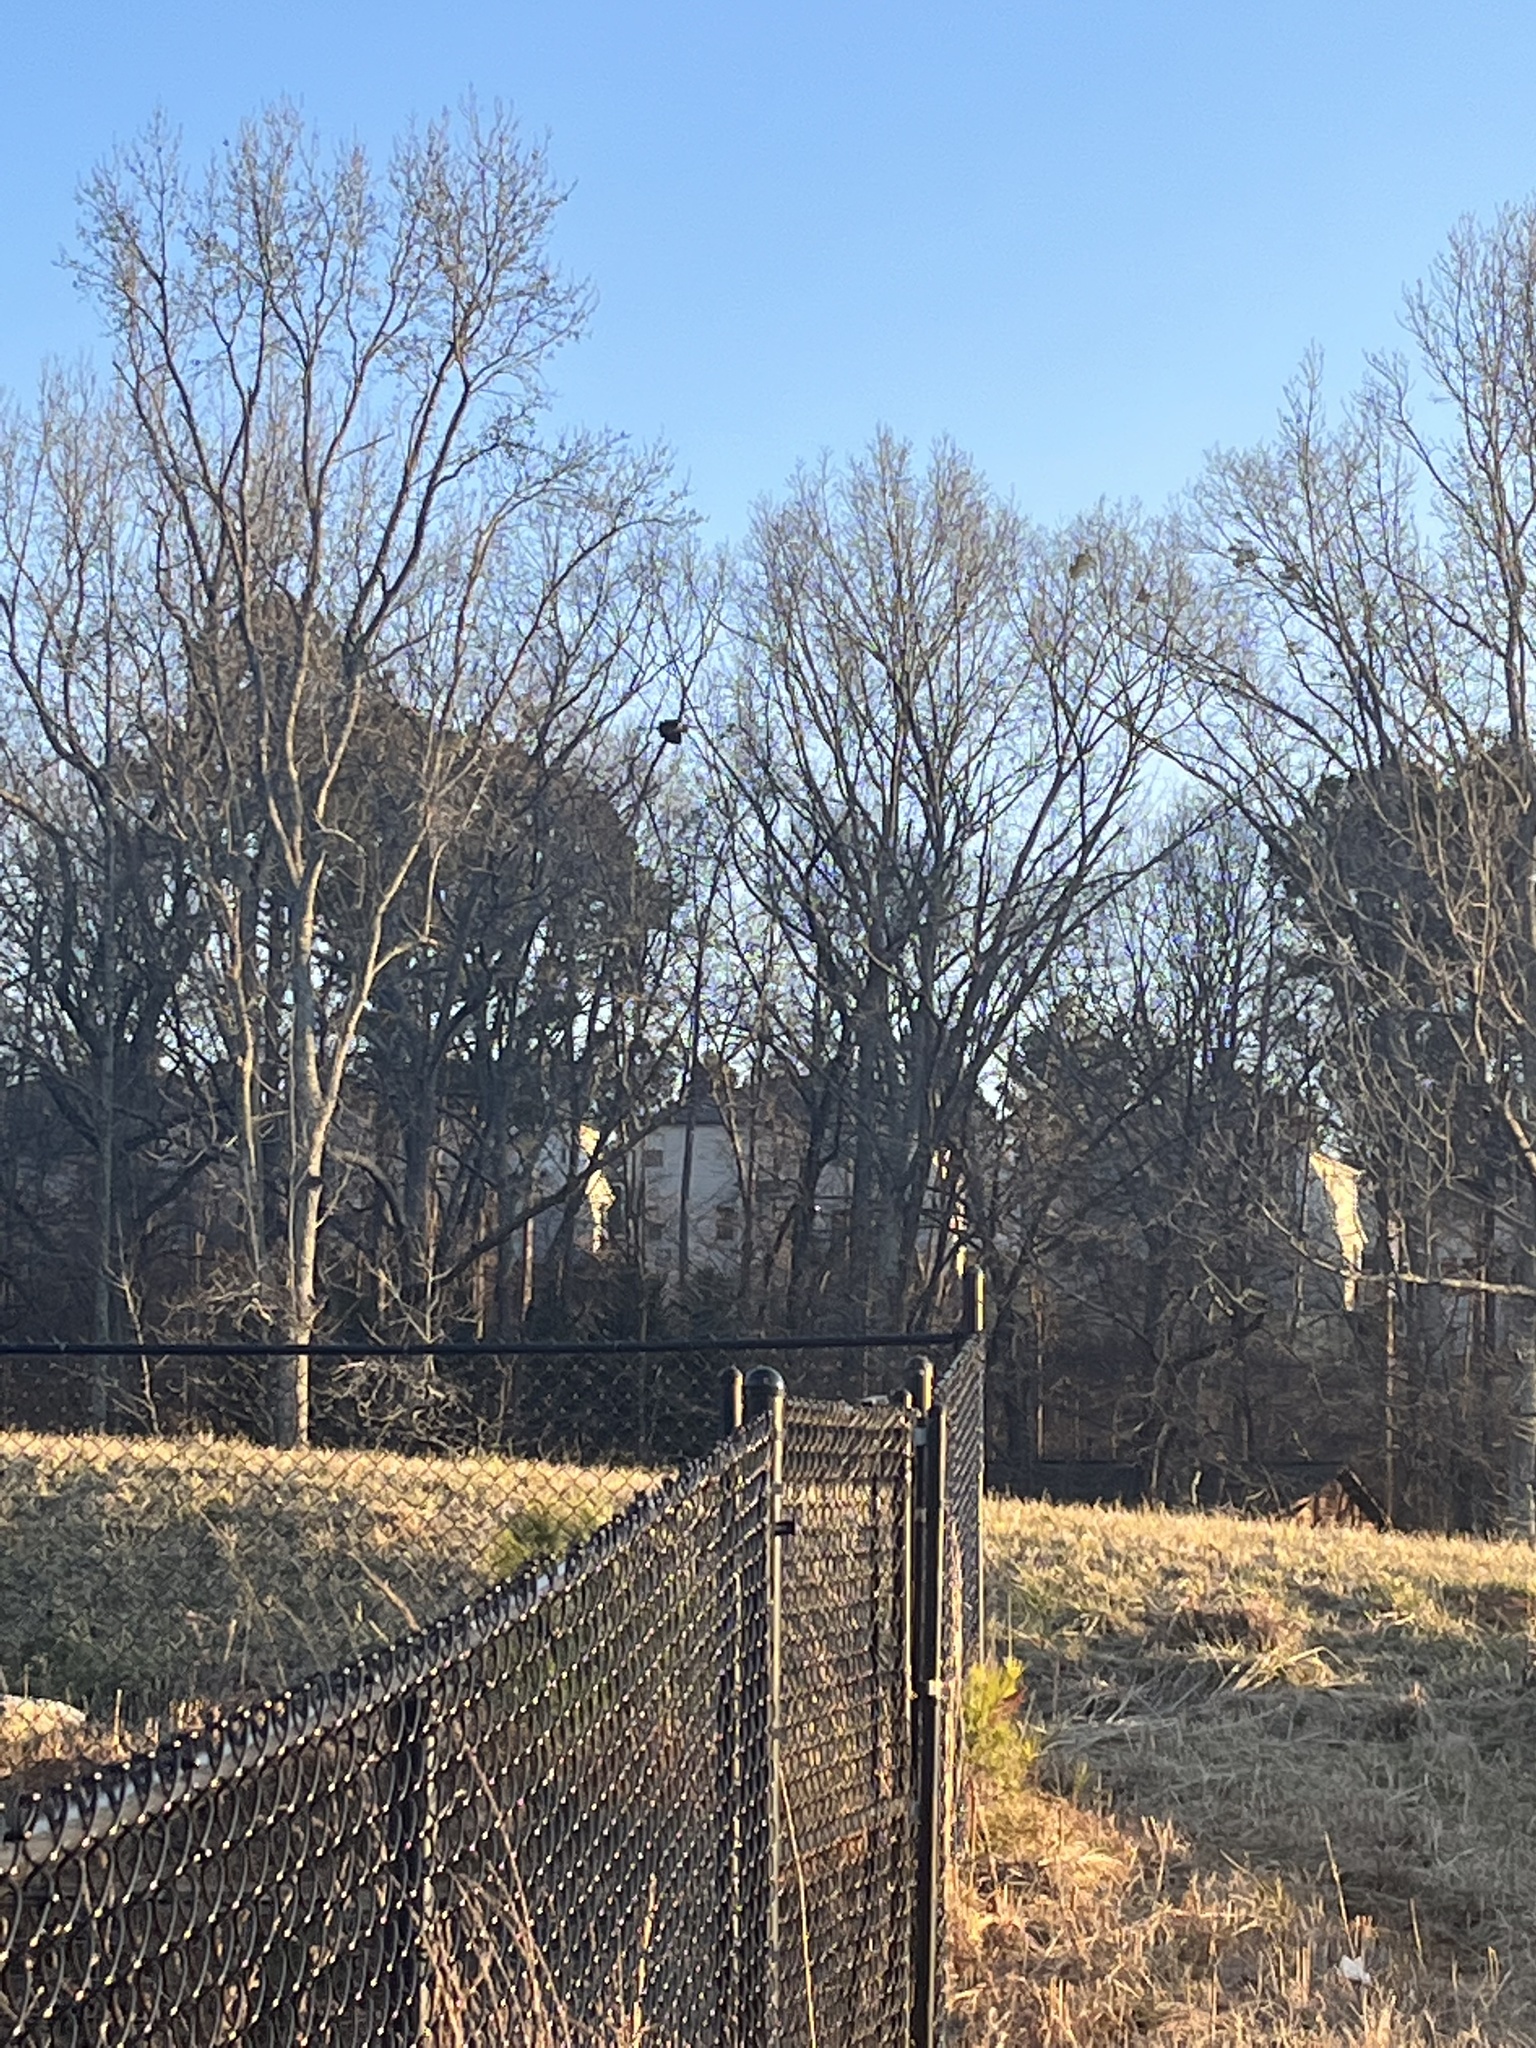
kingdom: Animalia
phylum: Chordata
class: Aves
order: Pelecaniformes
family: Ardeidae
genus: Ardea
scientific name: Ardea herodias
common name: Great blue heron
